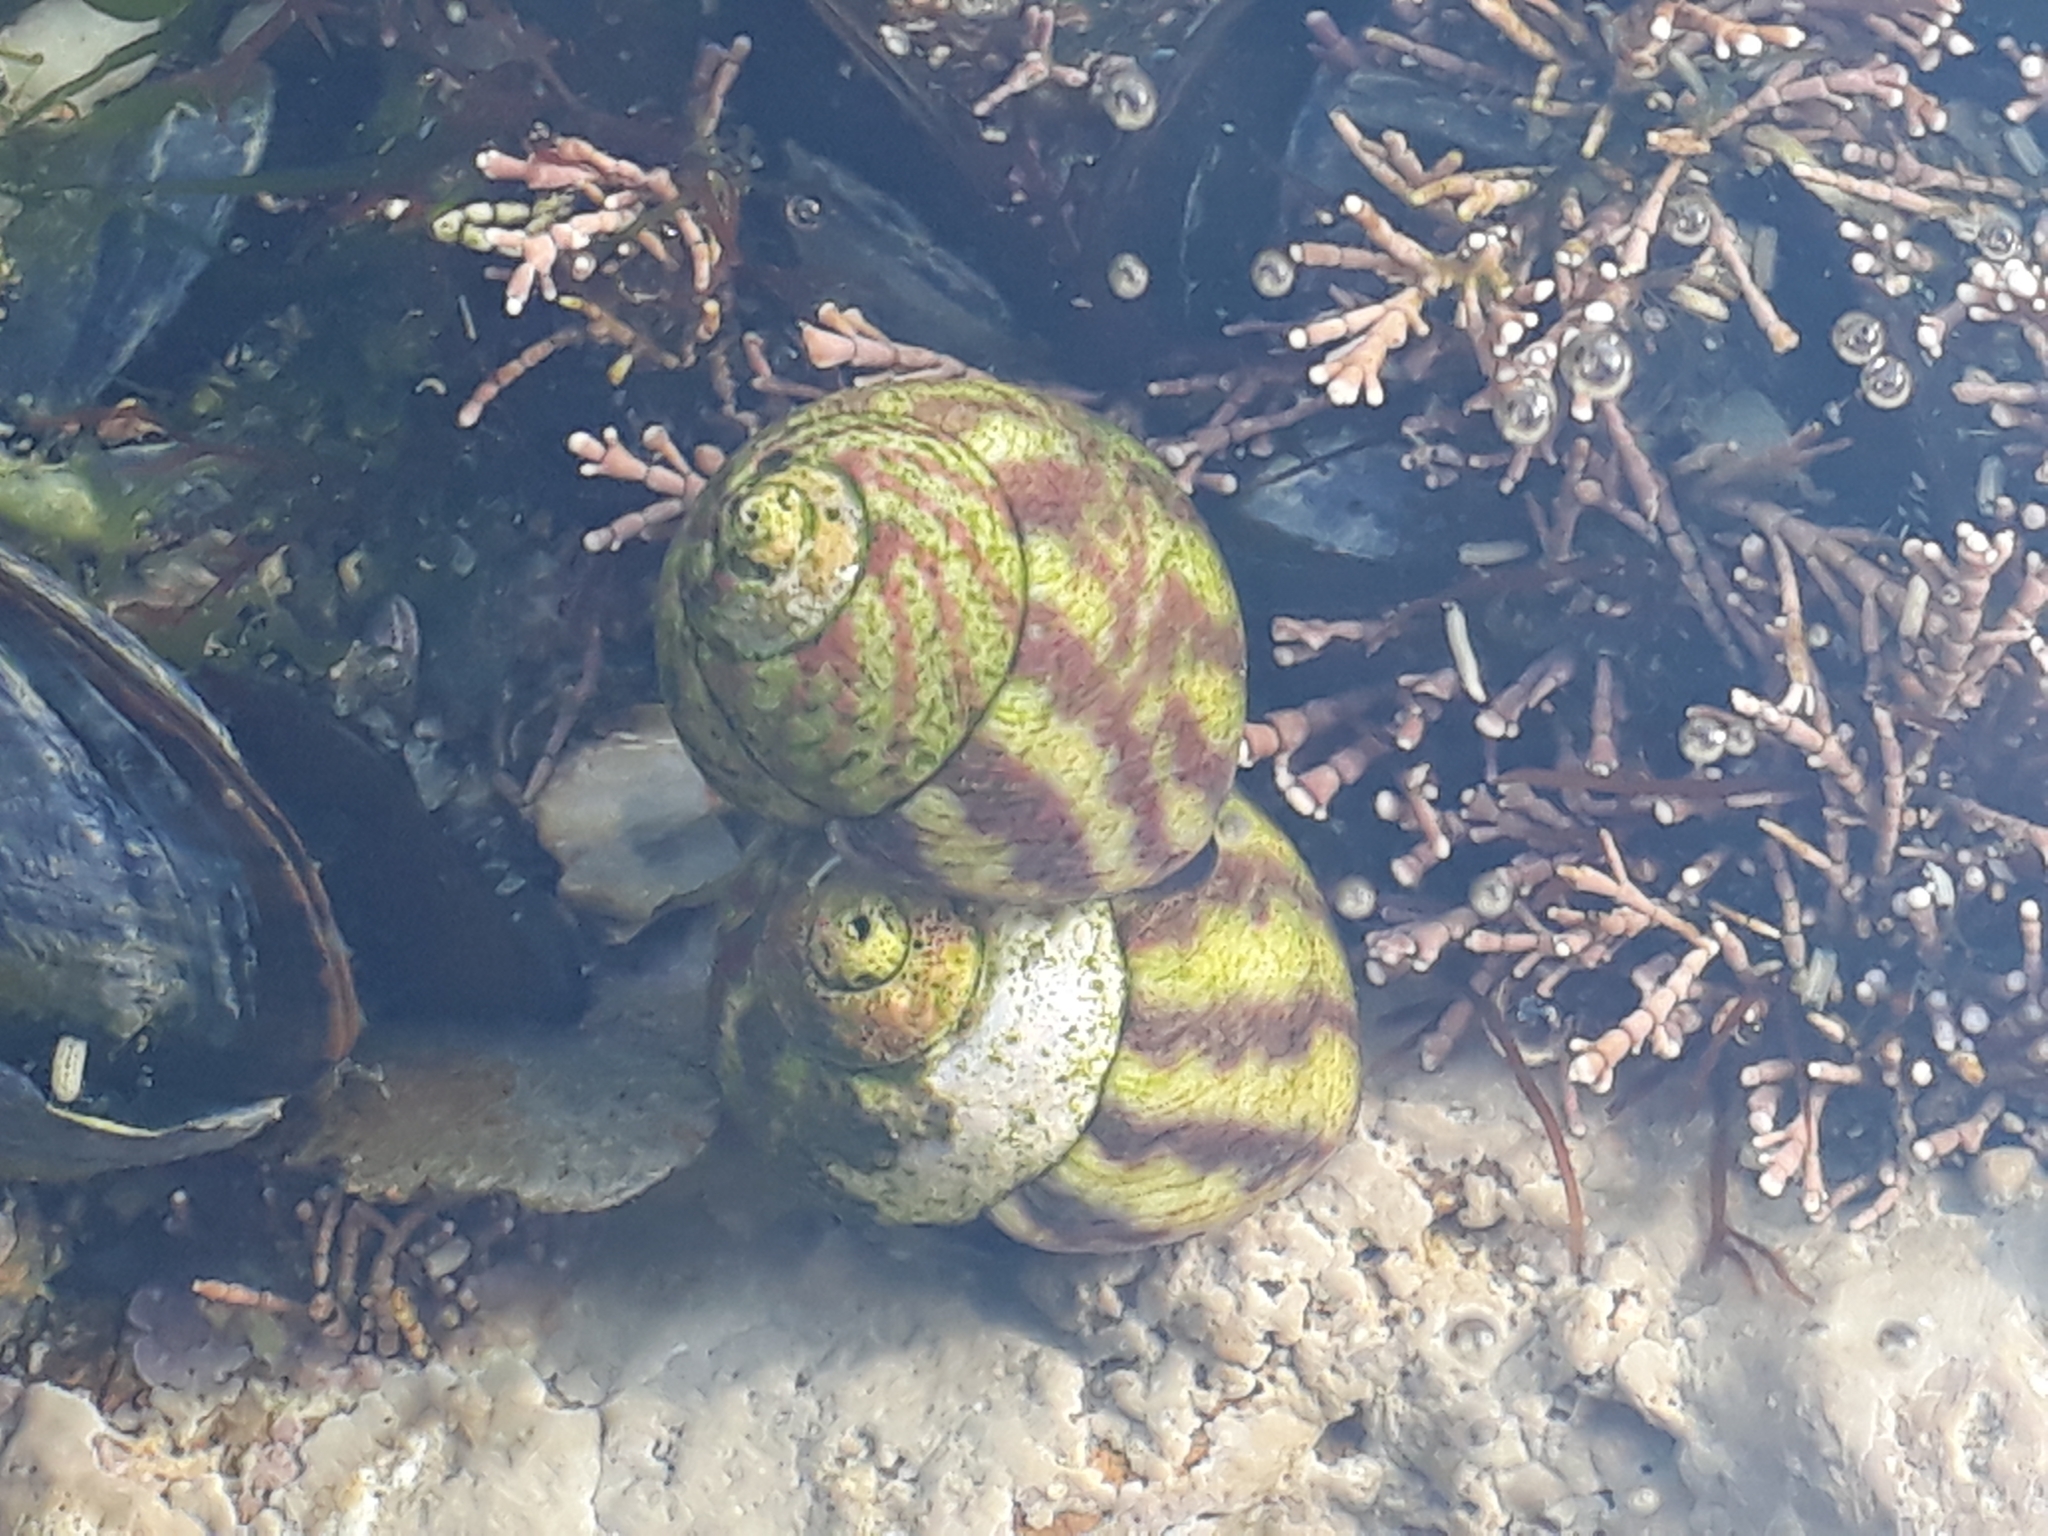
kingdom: Animalia
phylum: Mollusca
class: Gastropoda
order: Trochida
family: Trochidae
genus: Steromphala
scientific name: Steromphala umbilicalis
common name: Flat top shell
